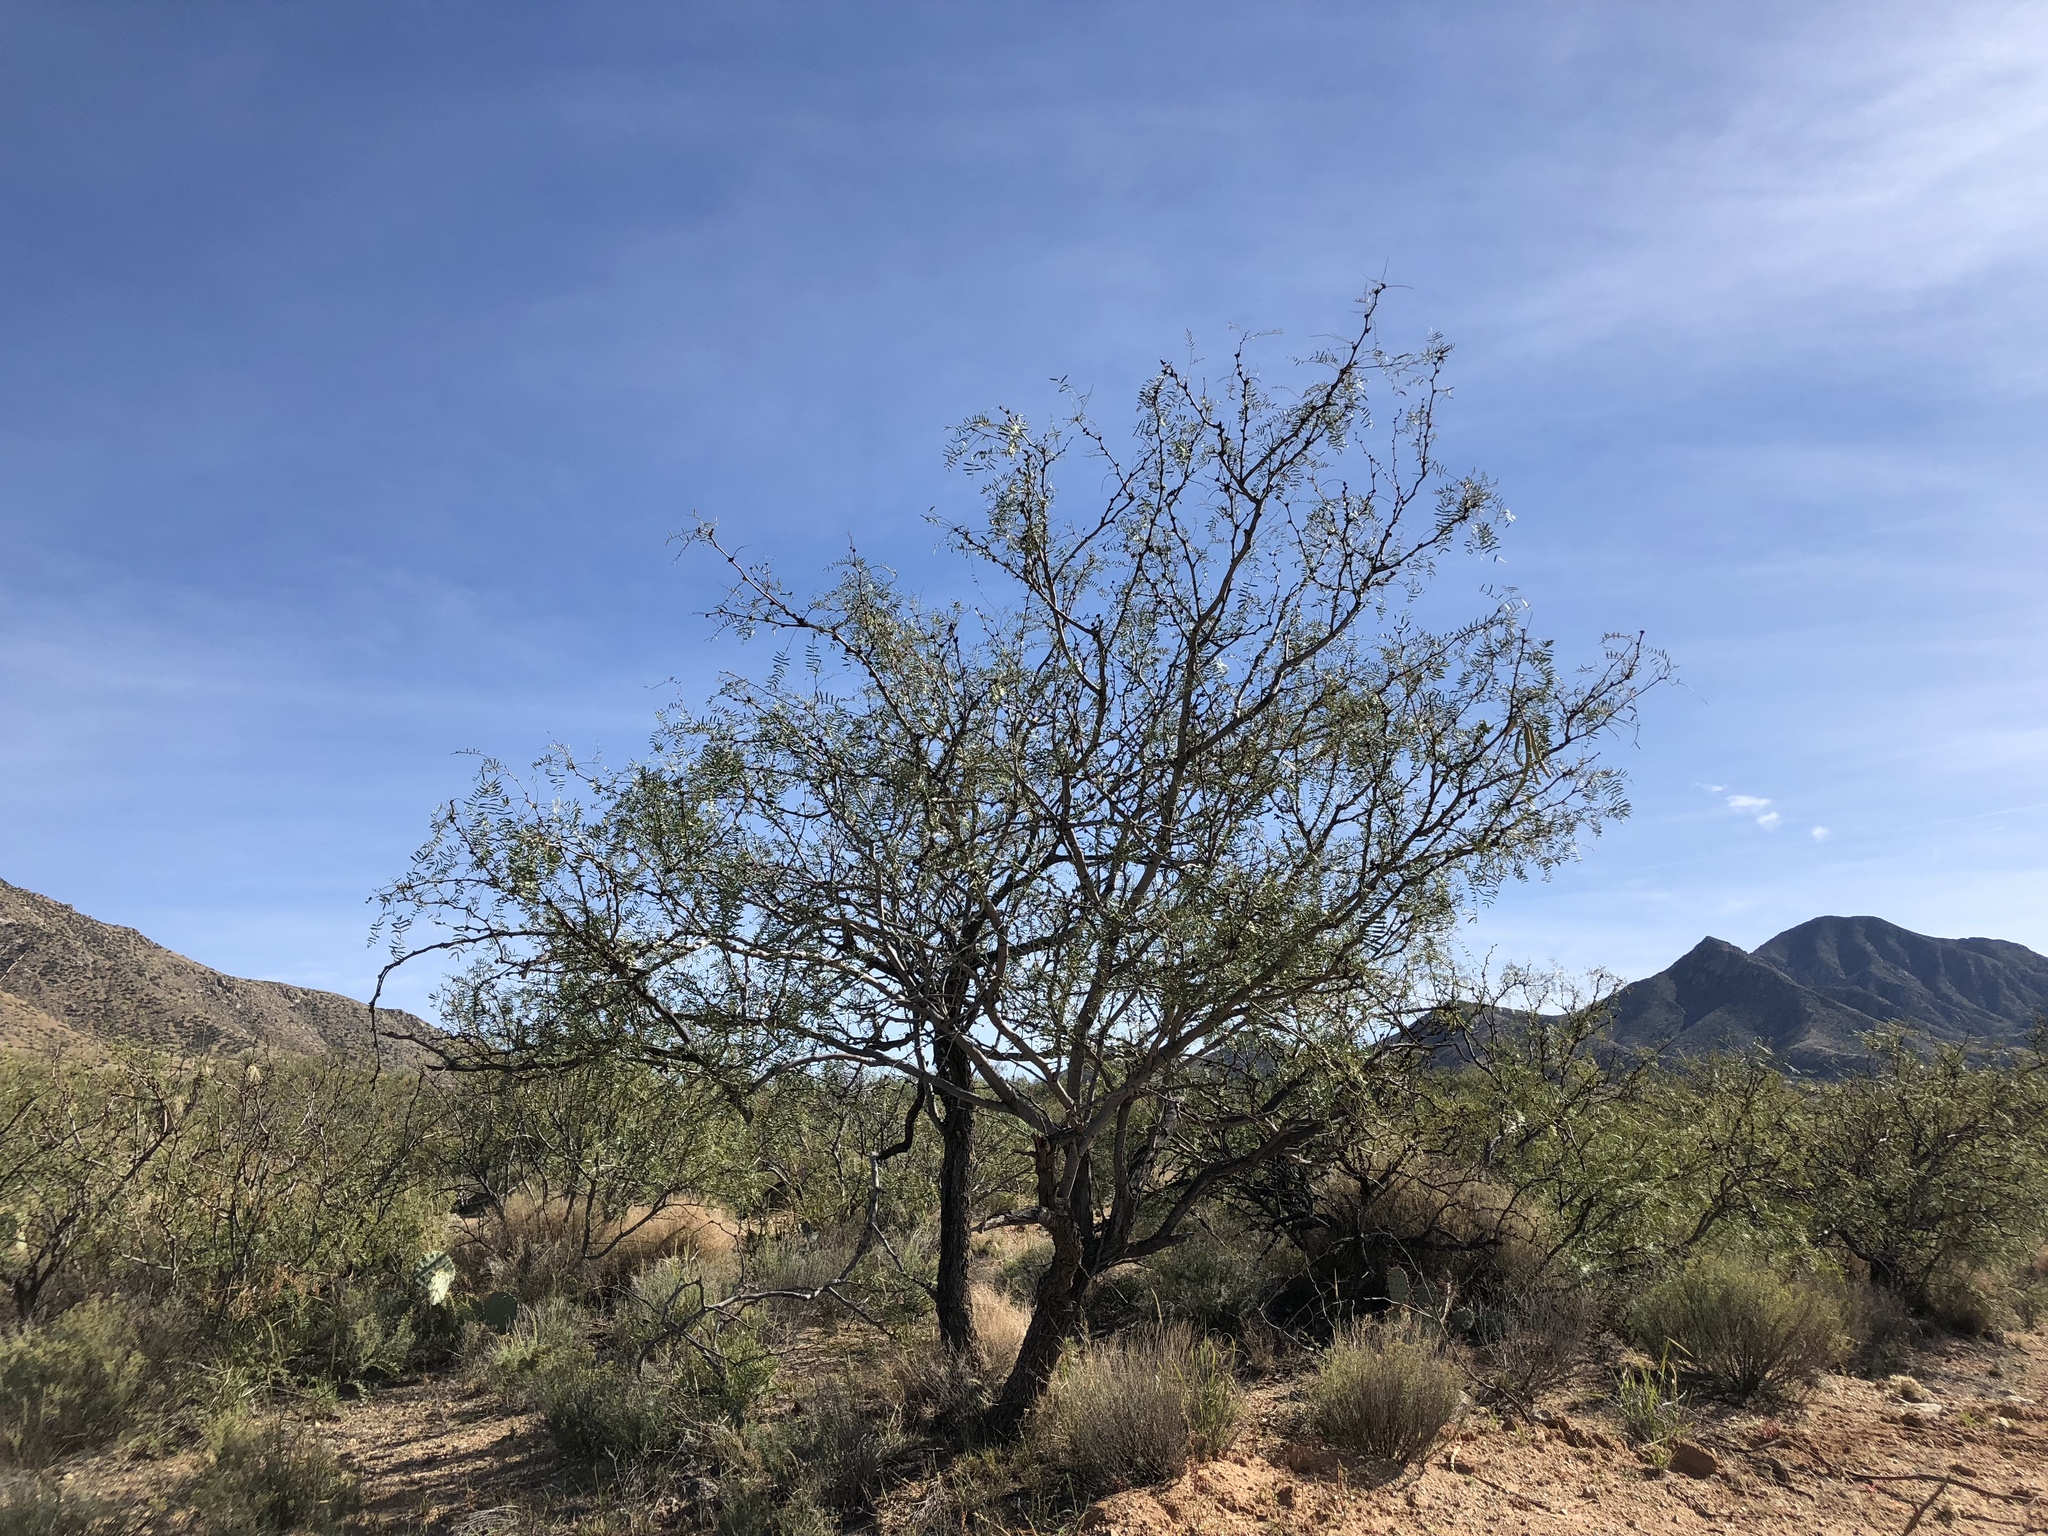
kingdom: Plantae
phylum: Tracheophyta
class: Magnoliopsida
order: Fabales
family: Fabaceae
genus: Prosopis
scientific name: Prosopis glandulosa
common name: Honey mesquite
